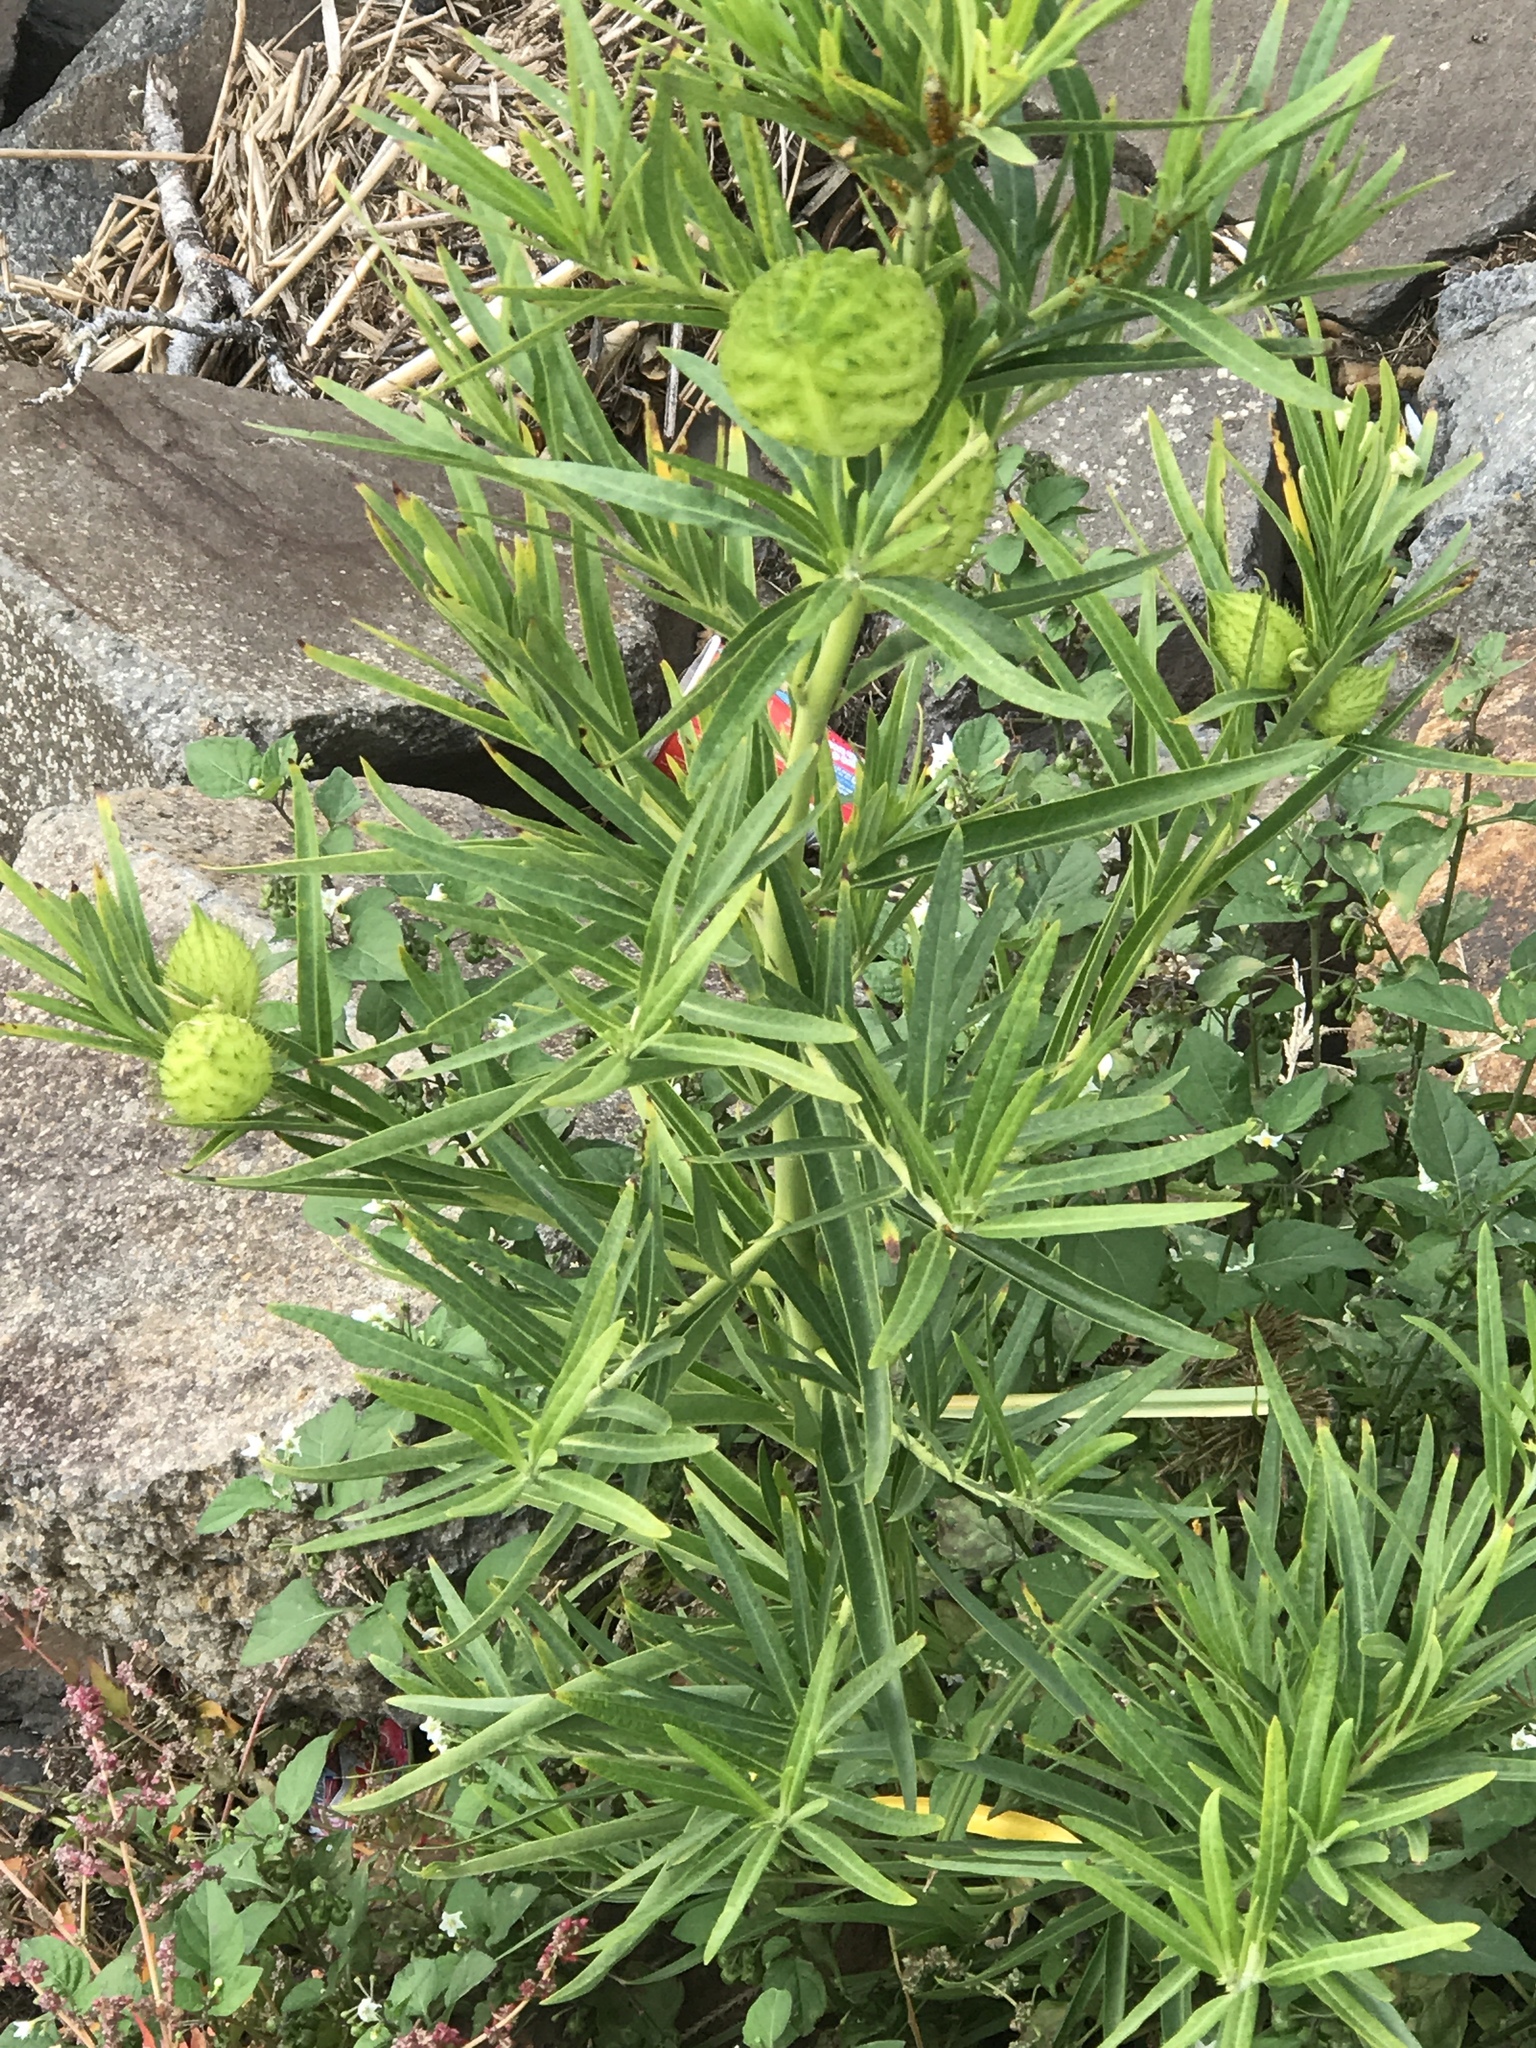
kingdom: Plantae
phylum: Tracheophyta
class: Magnoliopsida
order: Gentianales
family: Apocynaceae
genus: Gomphocarpus
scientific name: Gomphocarpus physocarpus
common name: Balloon cotton bush
